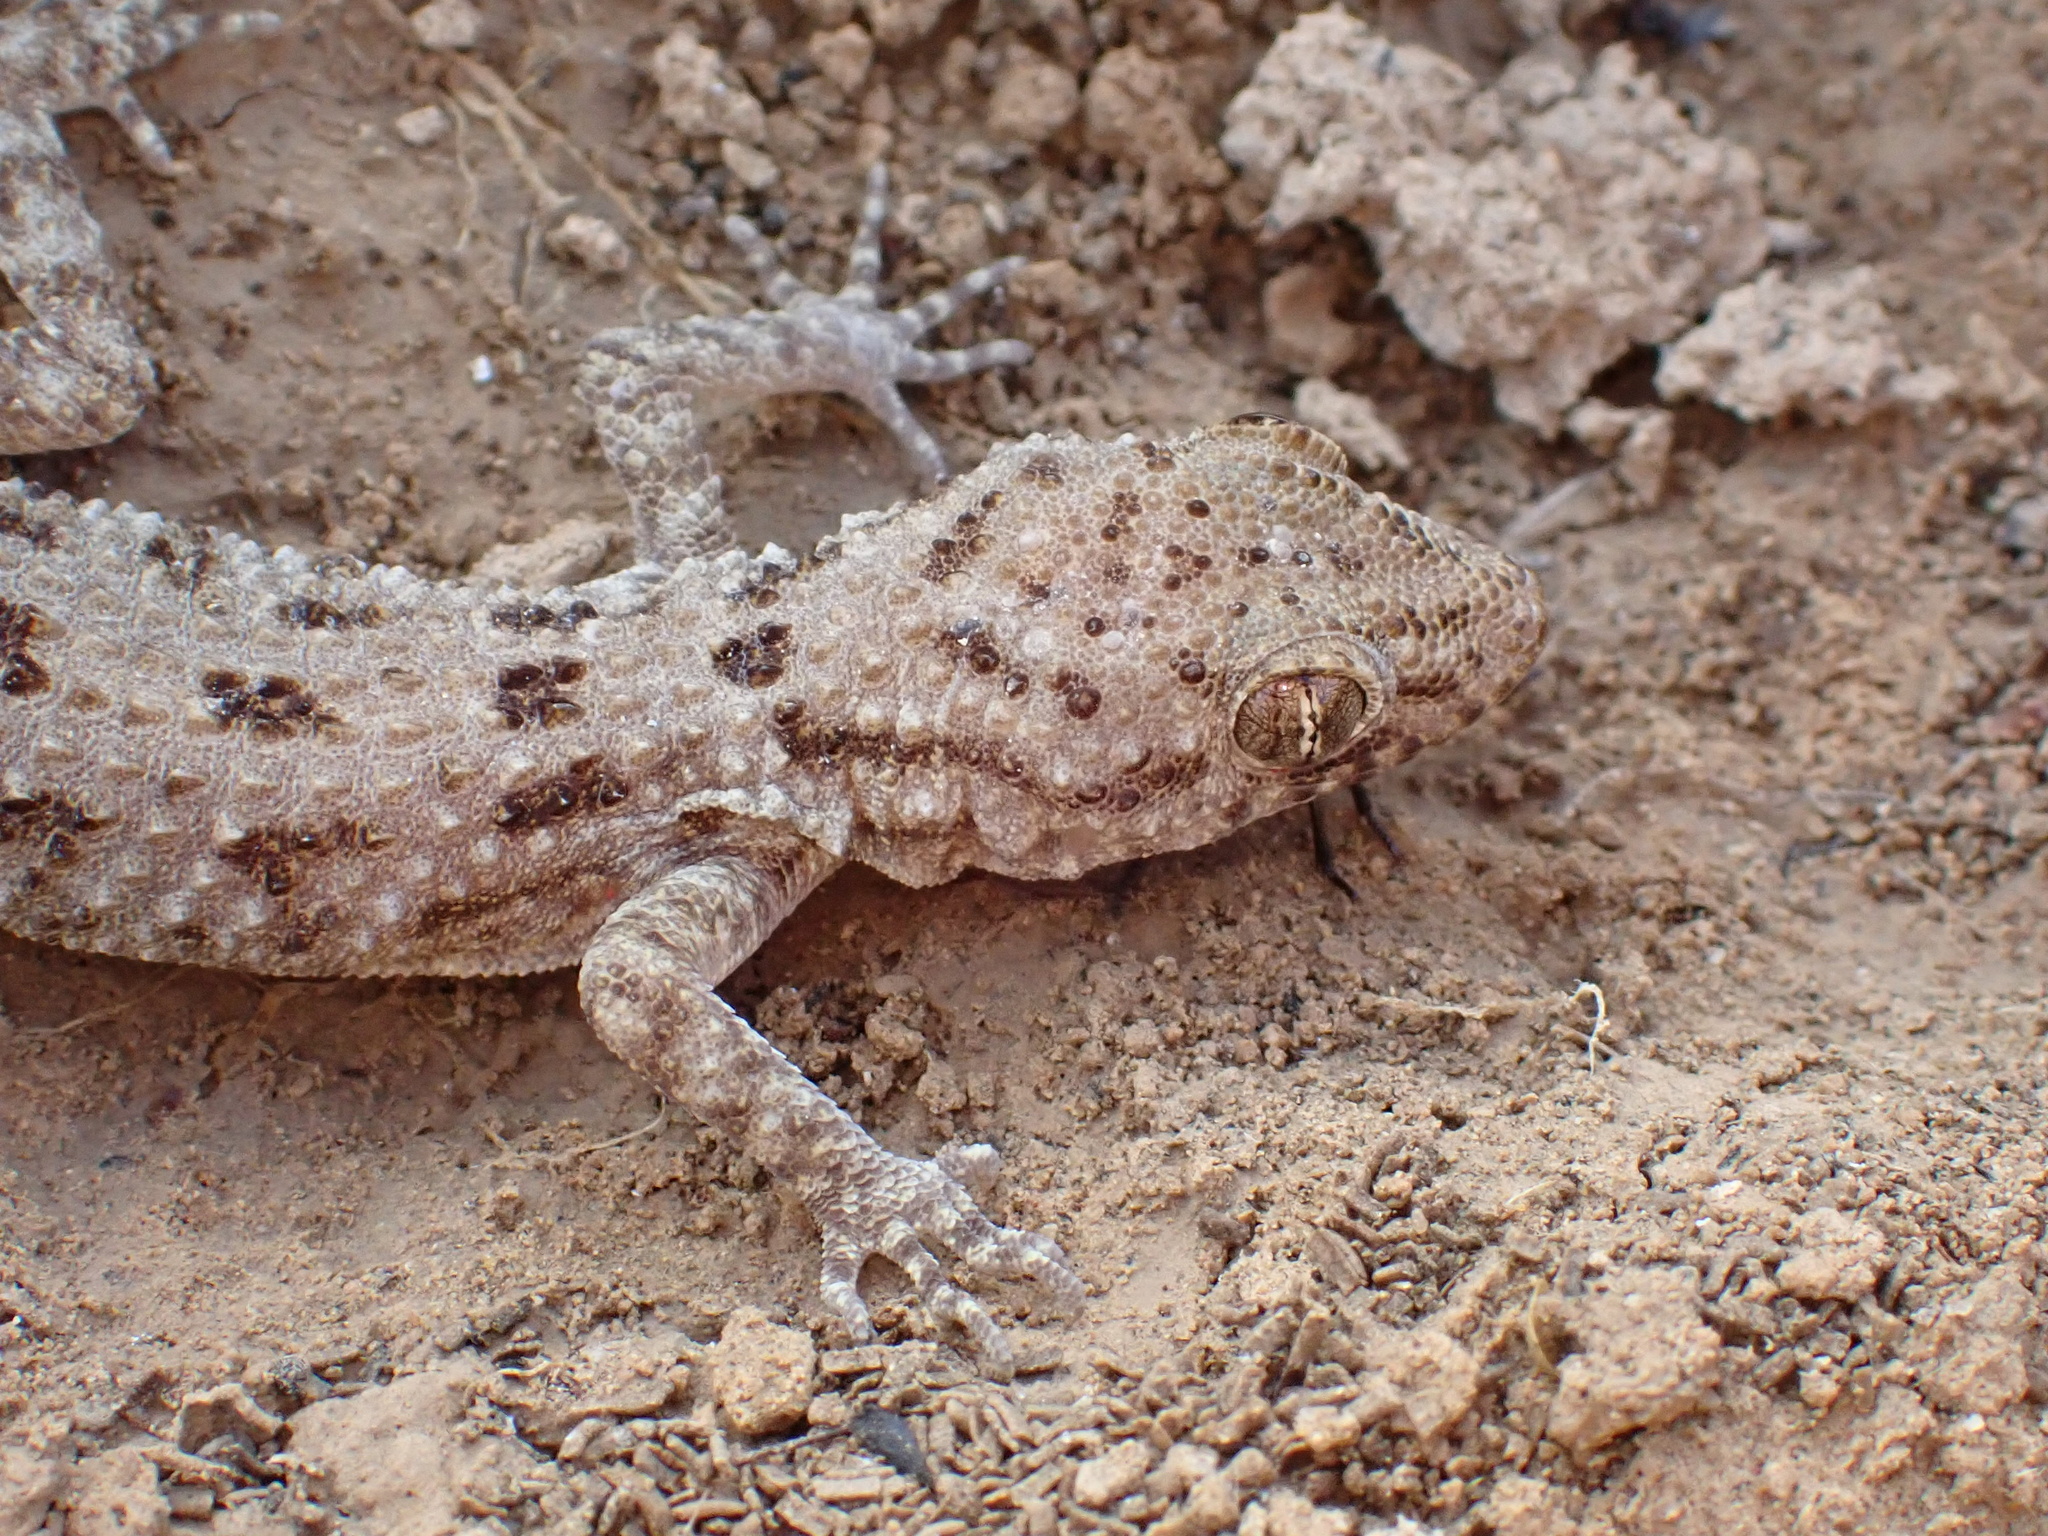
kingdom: Animalia
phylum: Chordata
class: Squamata
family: Gekkonidae
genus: Cyrtopodion
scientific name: Cyrtopodion scabrum
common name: Rough-tailed gecko
